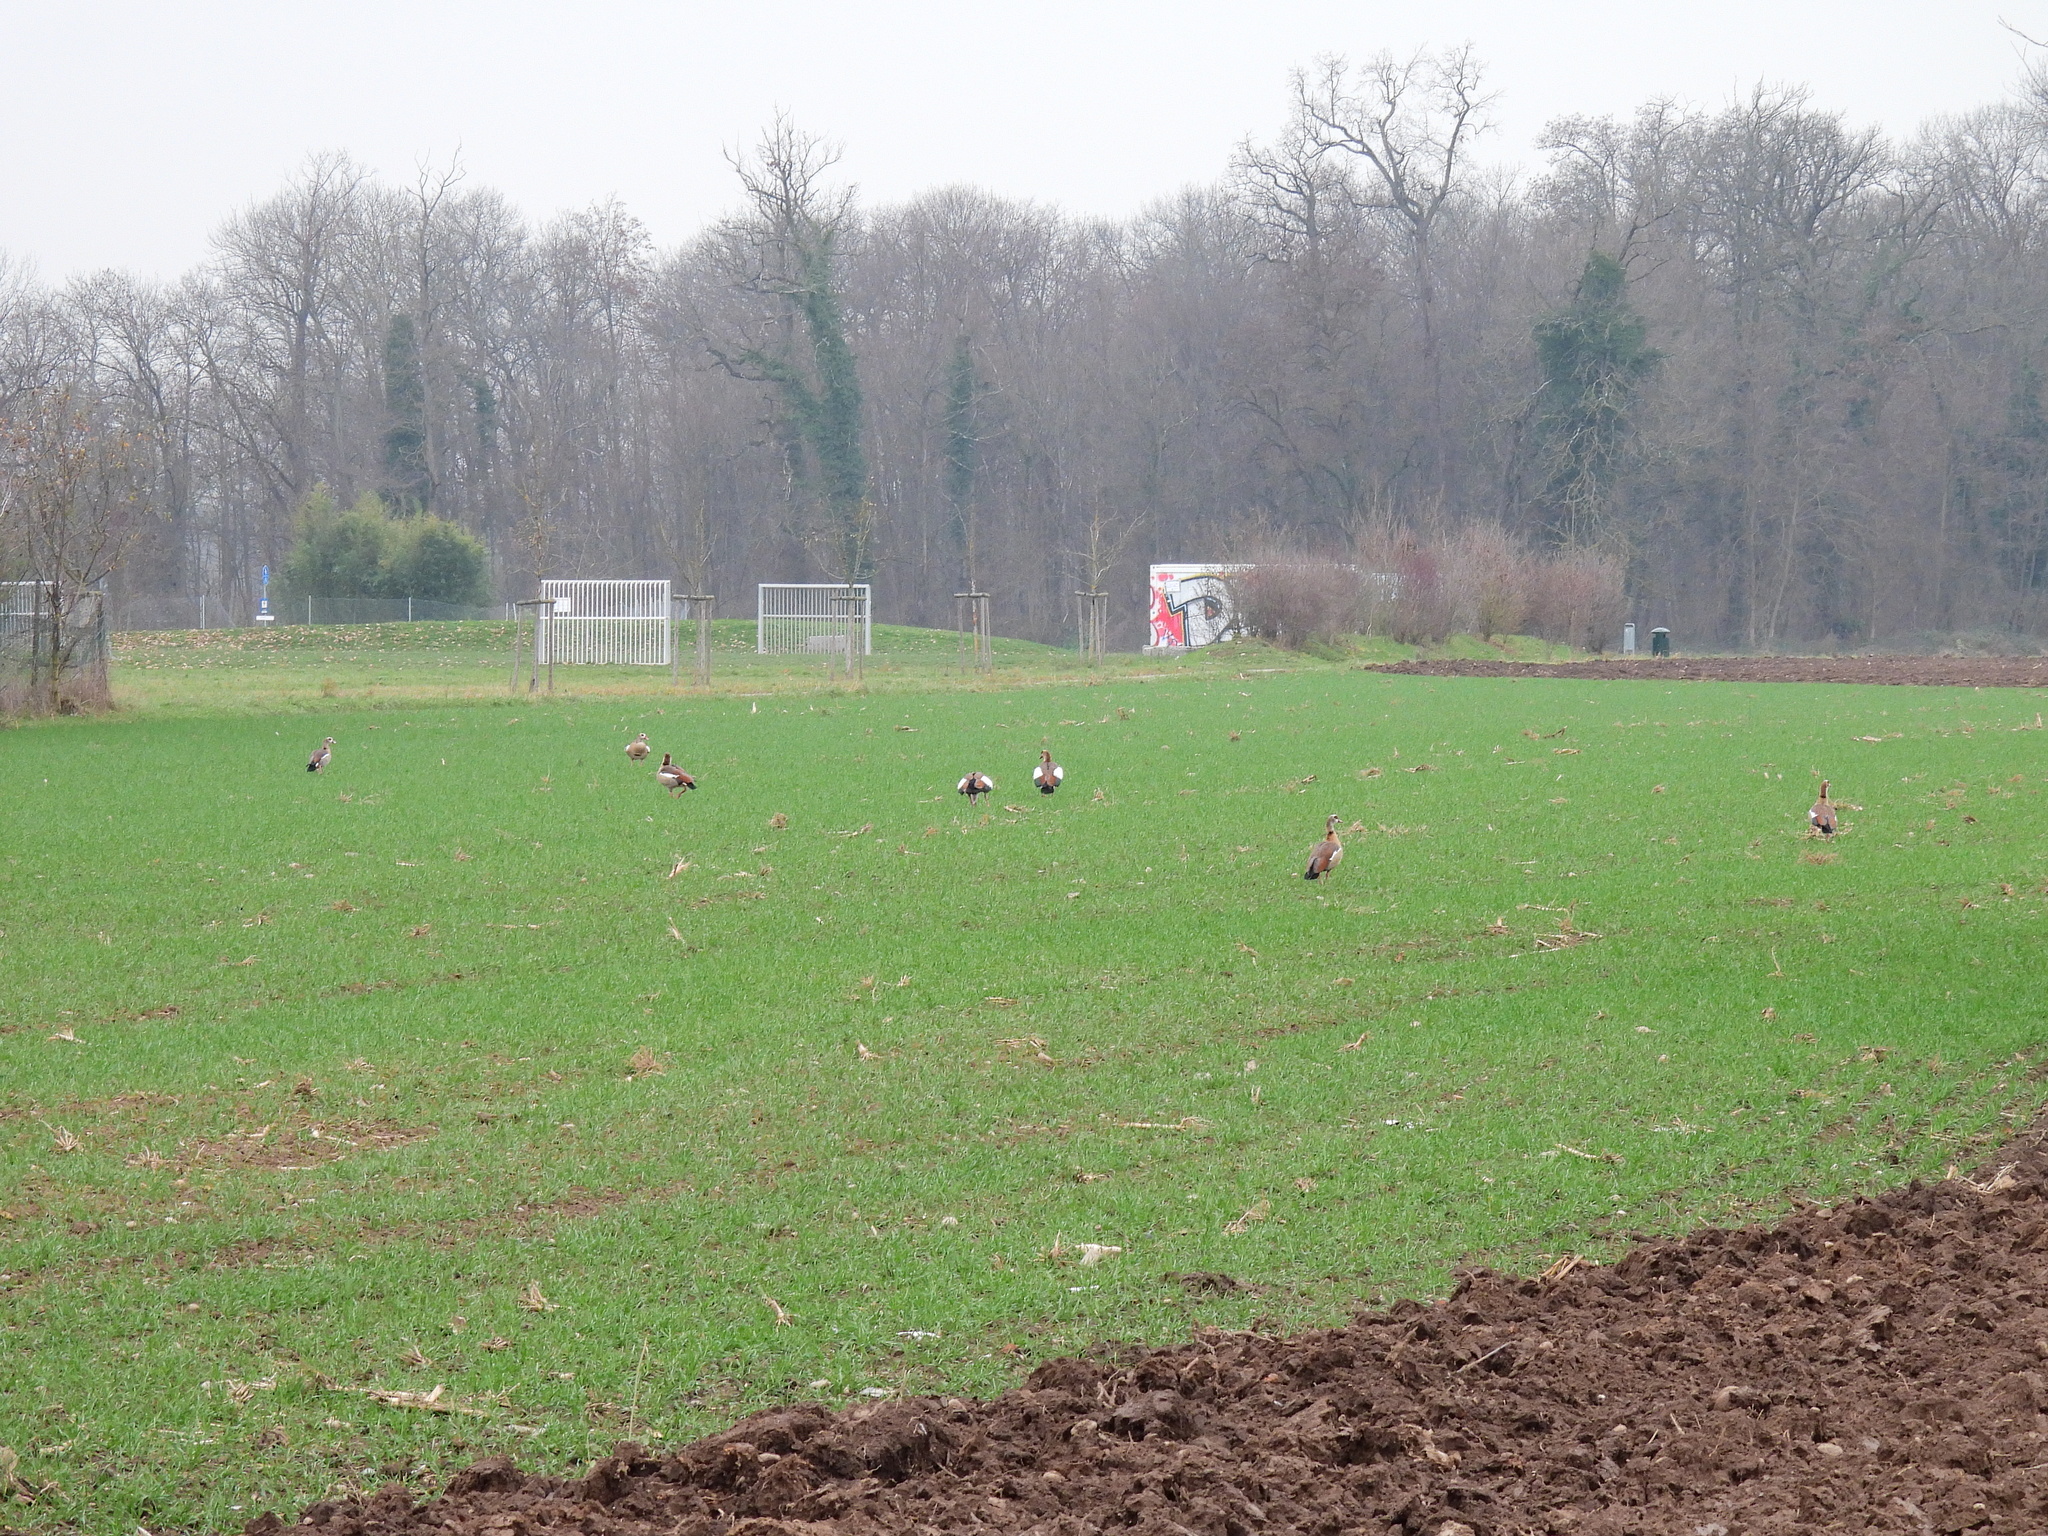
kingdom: Animalia
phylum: Chordata
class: Aves
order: Anseriformes
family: Anatidae
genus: Alopochen
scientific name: Alopochen aegyptiaca
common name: Egyptian goose
